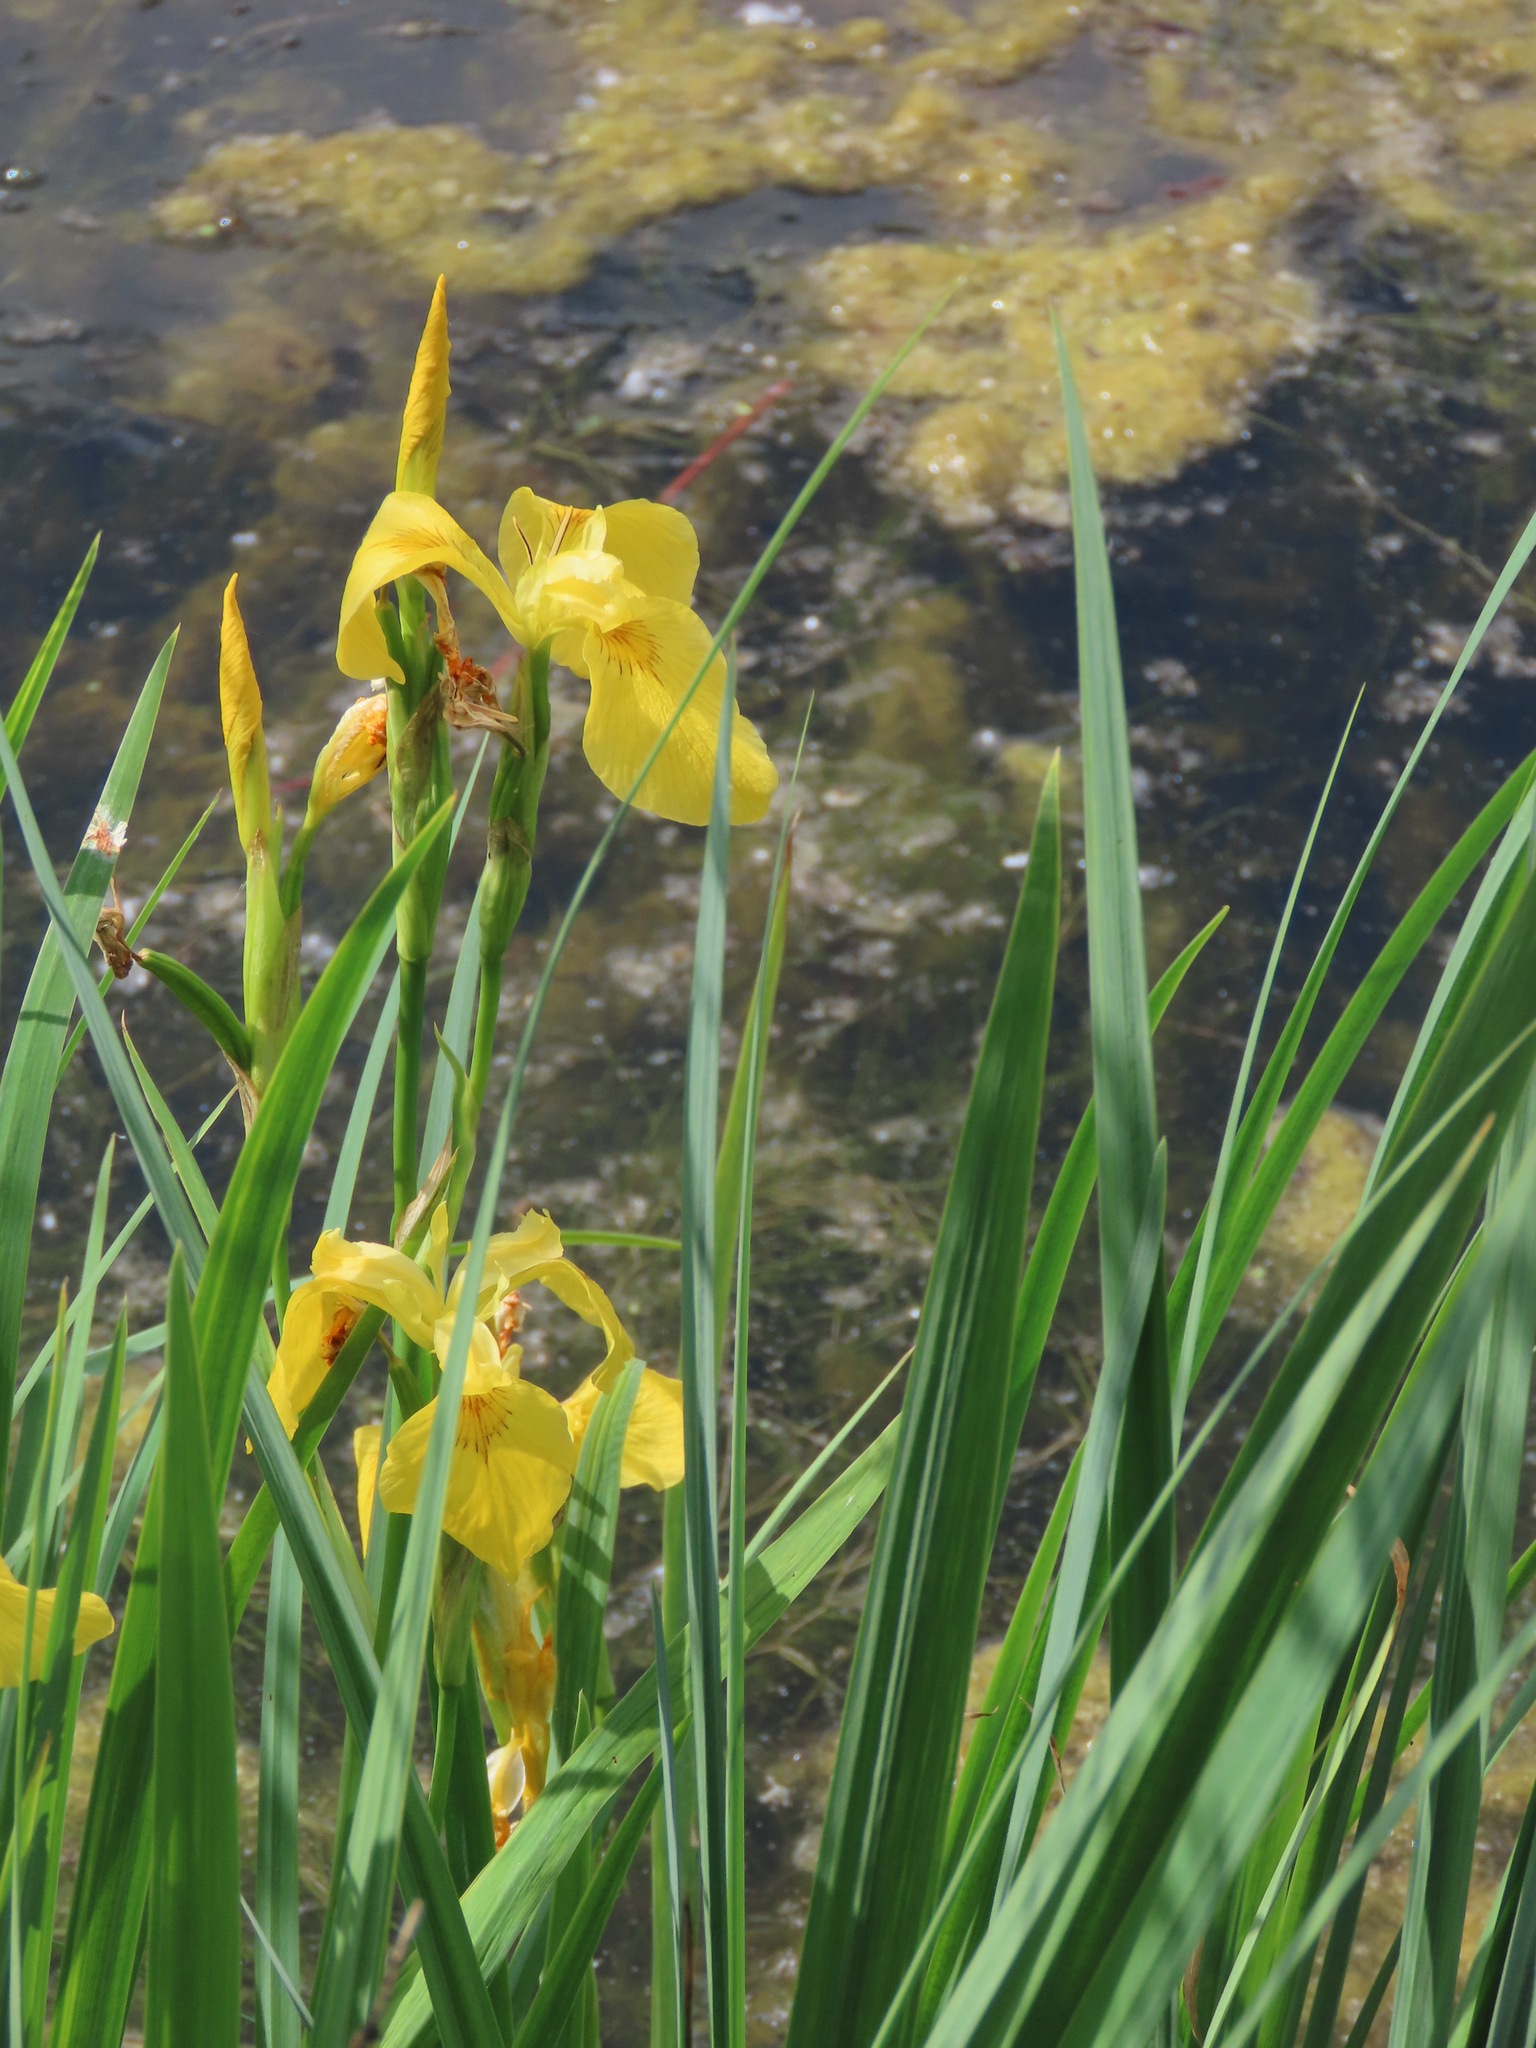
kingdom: Plantae
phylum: Tracheophyta
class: Liliopsida
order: Asparagales
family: Iridaceae
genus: Iris
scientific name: Iris pseudacorus
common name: Yellow flag
